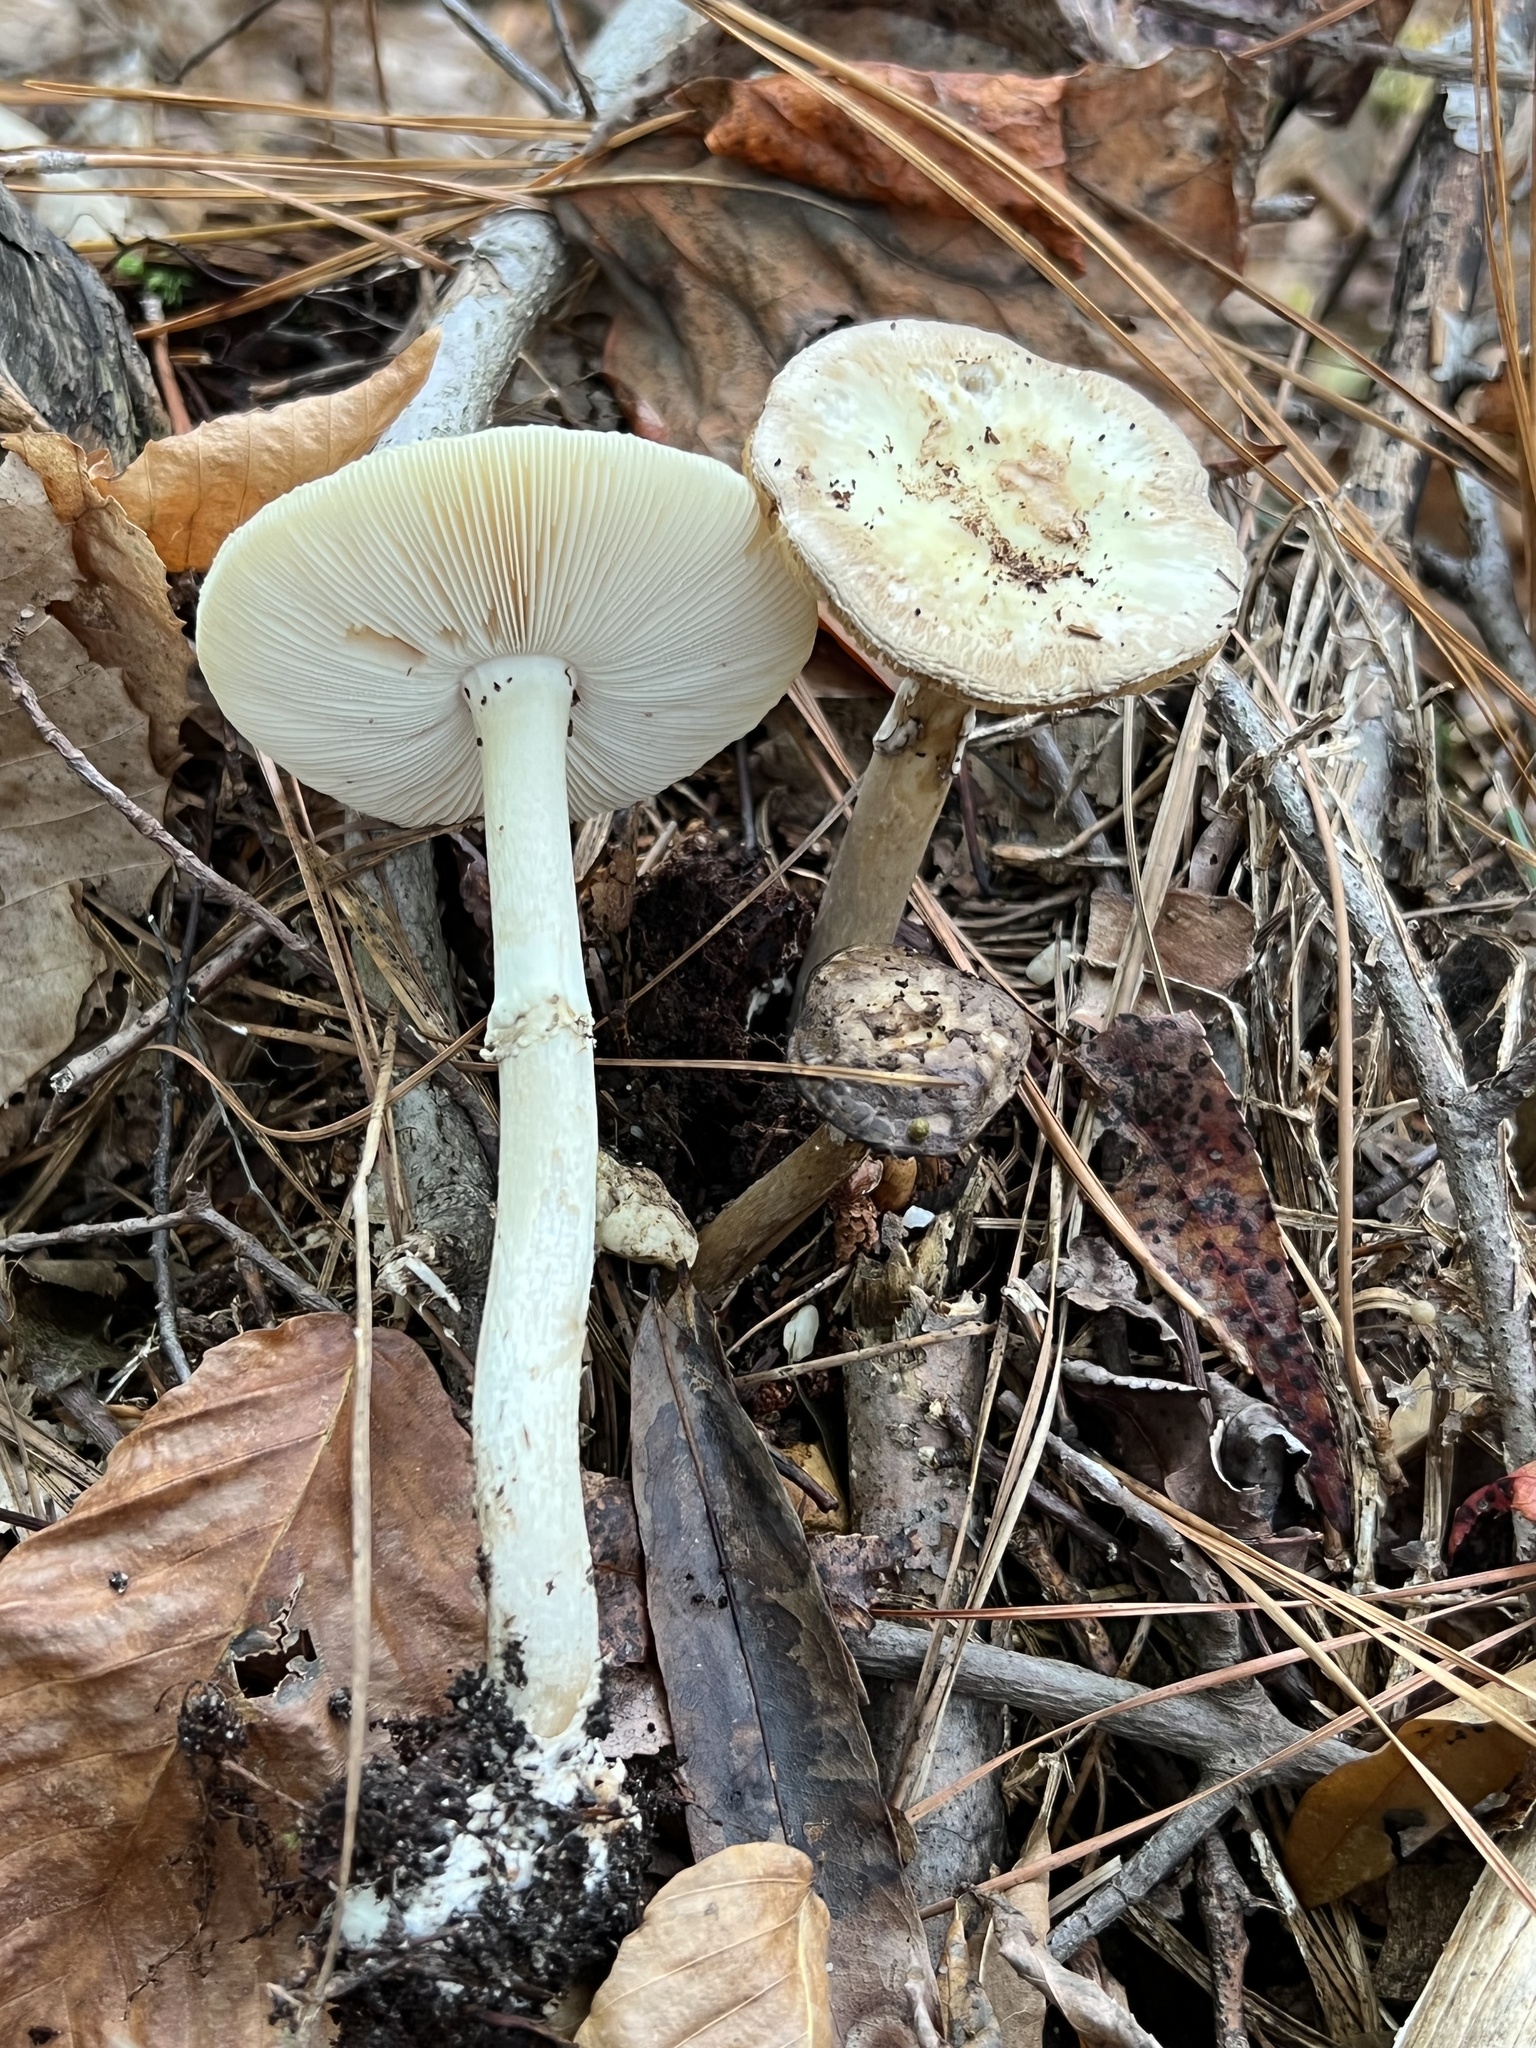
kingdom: Fungi
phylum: Basidiomycota
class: Agaricomycetes
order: Agaricales
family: Amanitaceae
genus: Amanita
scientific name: Amanita lavendula
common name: Coker's lavender staining amanita
